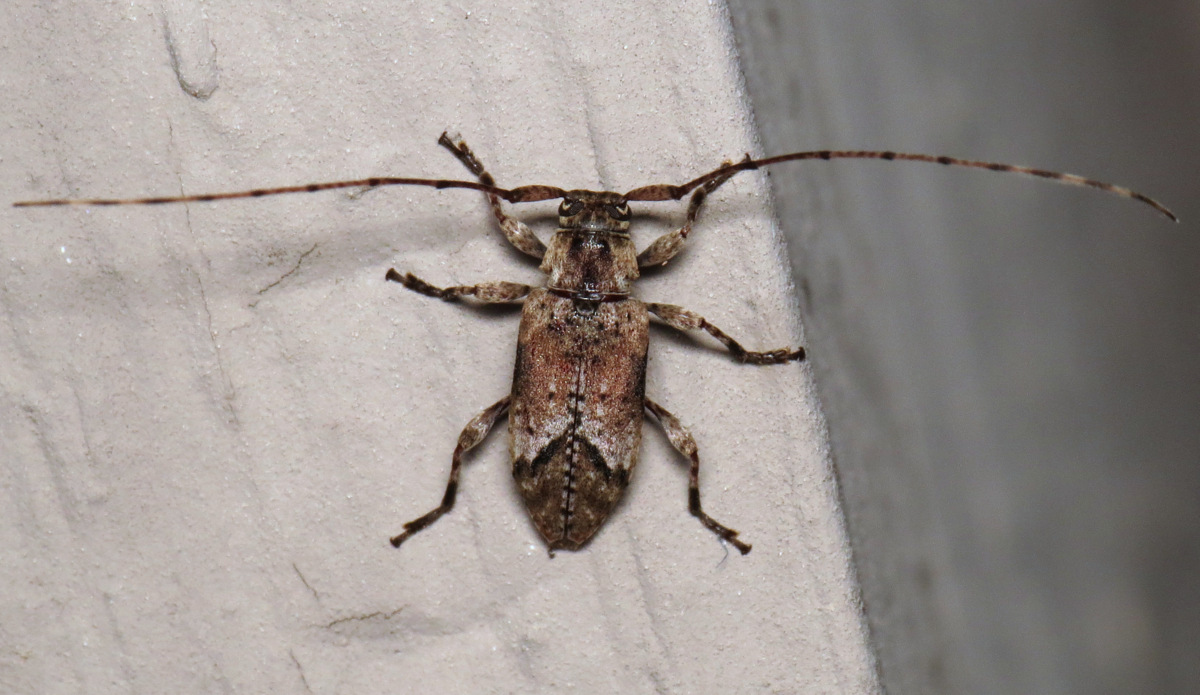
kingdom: Animalia
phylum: Arthropoda
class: Insecta
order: Coleoptera
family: Cerambycidae
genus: Sternidius
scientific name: Sternidius alpha
